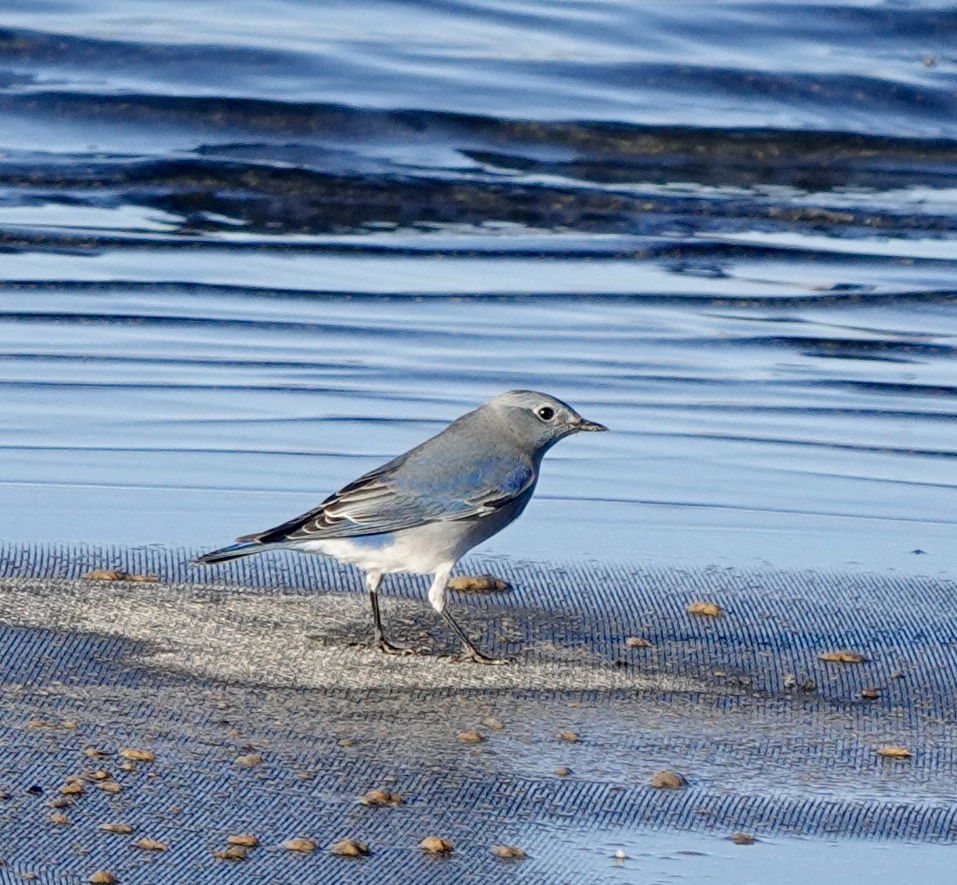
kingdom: Animalia
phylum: Chordata
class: Aves
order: Passeriformes
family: Turdidae
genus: Sialia
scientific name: Sialia currucoides
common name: Mountain bluebird
